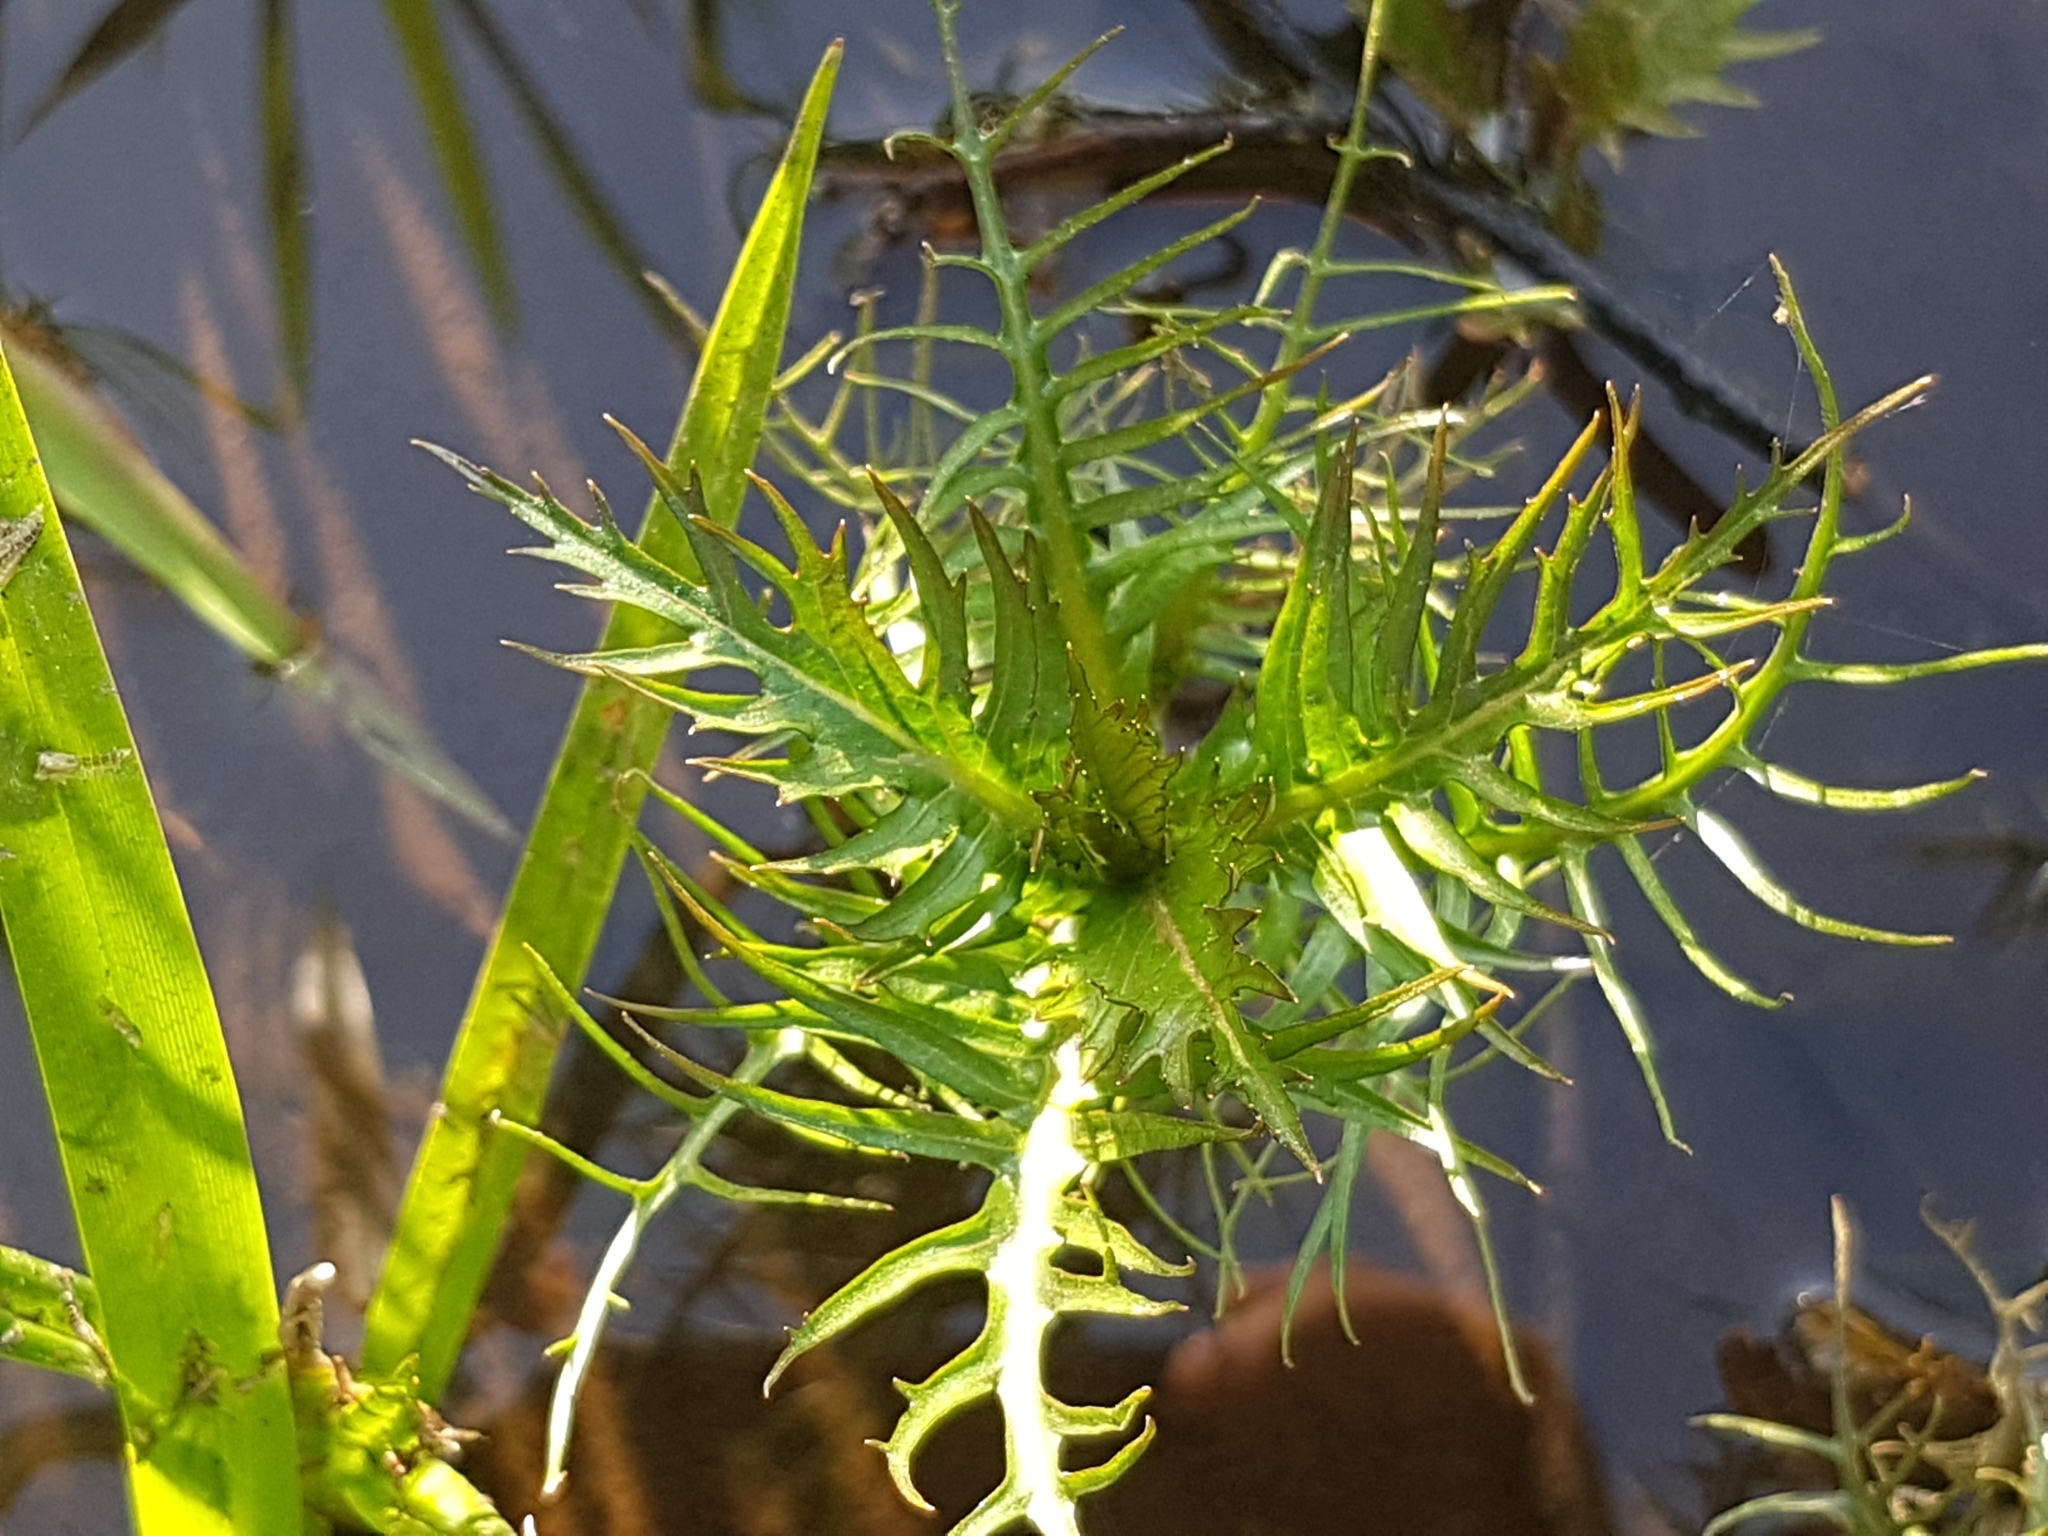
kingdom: Plantae
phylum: Tracheophyta
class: Magnoliopsida
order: Brassicales
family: Brassicaceae
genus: Rorippa
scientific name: Rorippa amphibia
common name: Great yellow-cress
